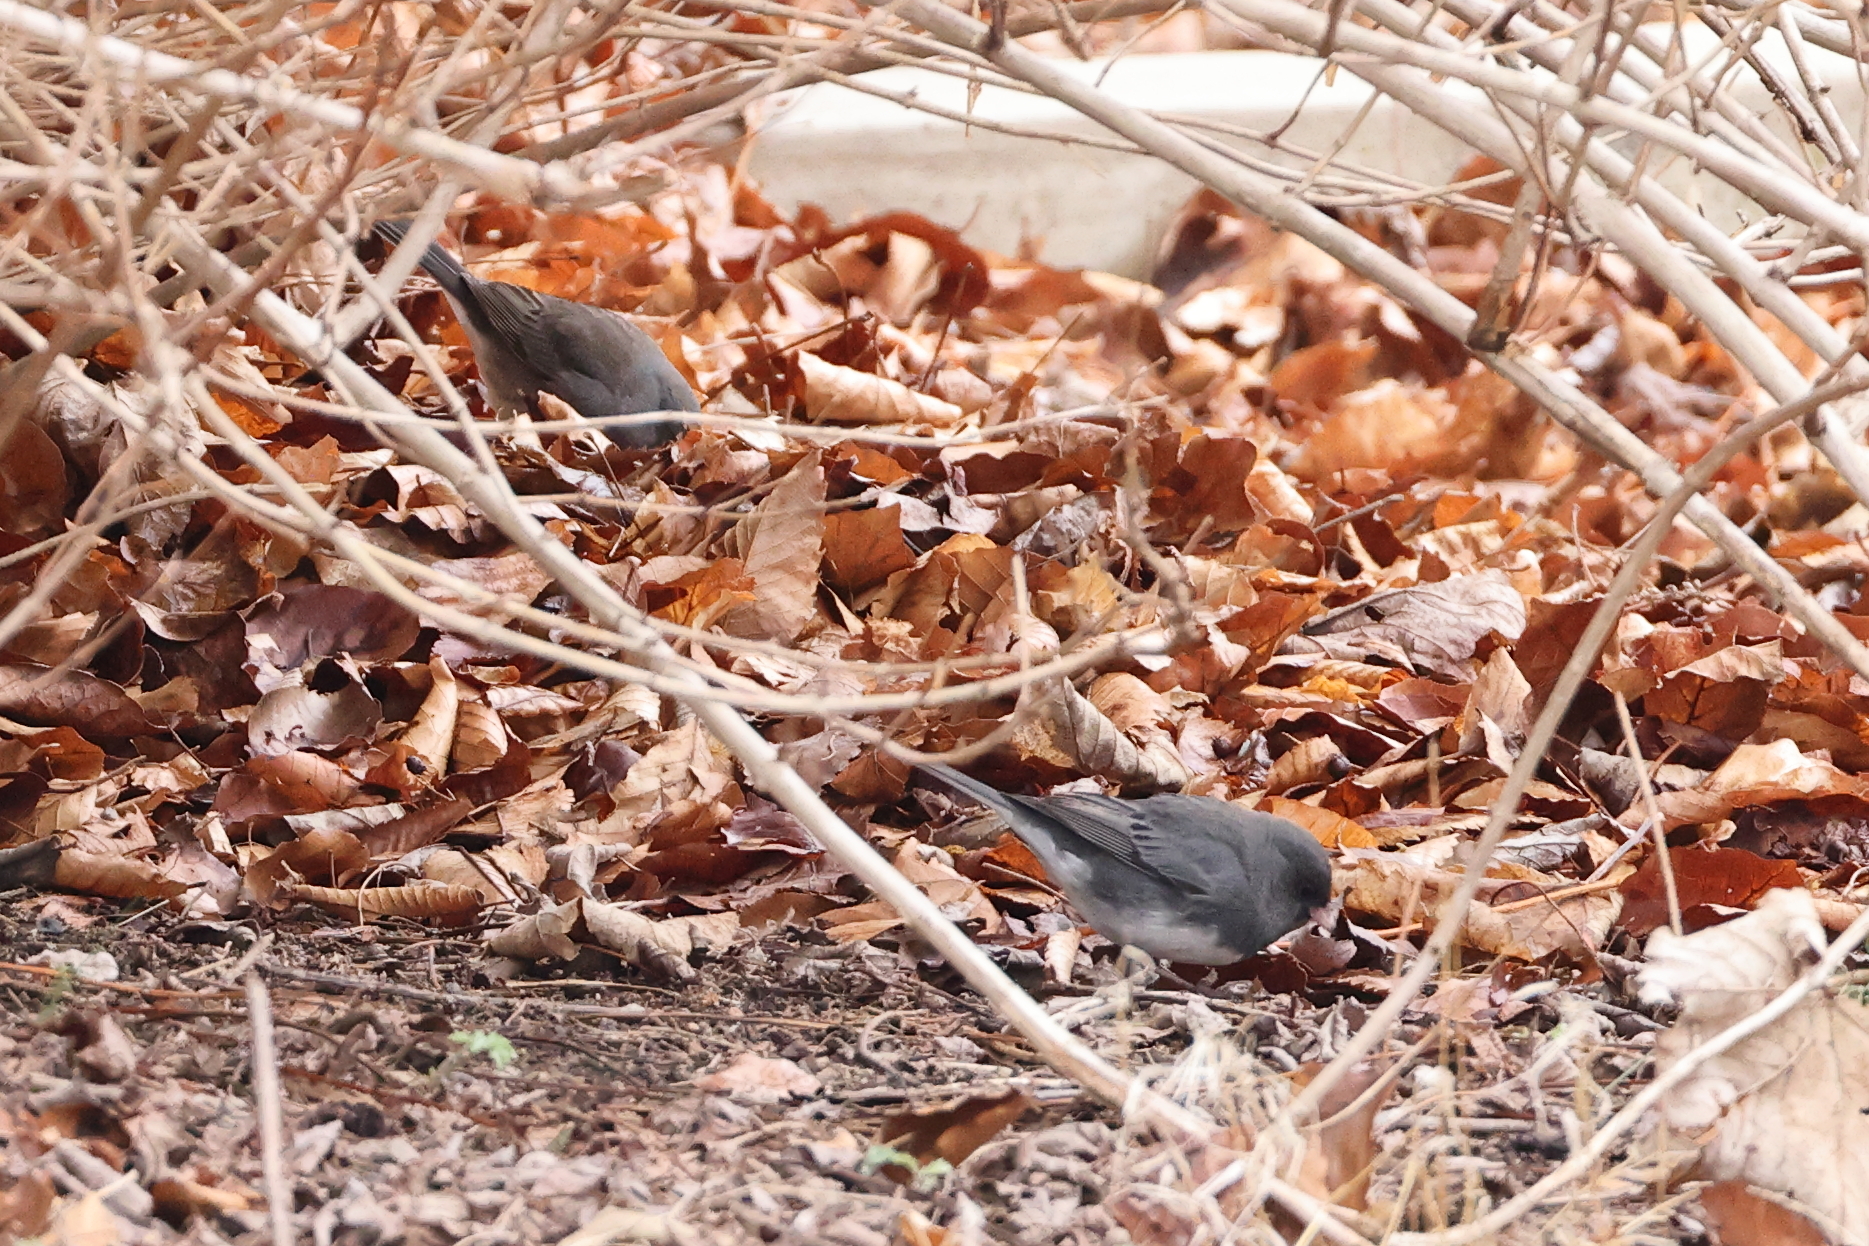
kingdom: Animalia
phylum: Chordata
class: Aves
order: Passeriformes
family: Passerellidae
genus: Junco
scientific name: Junco hyemalis
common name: Dark-eyed junco
